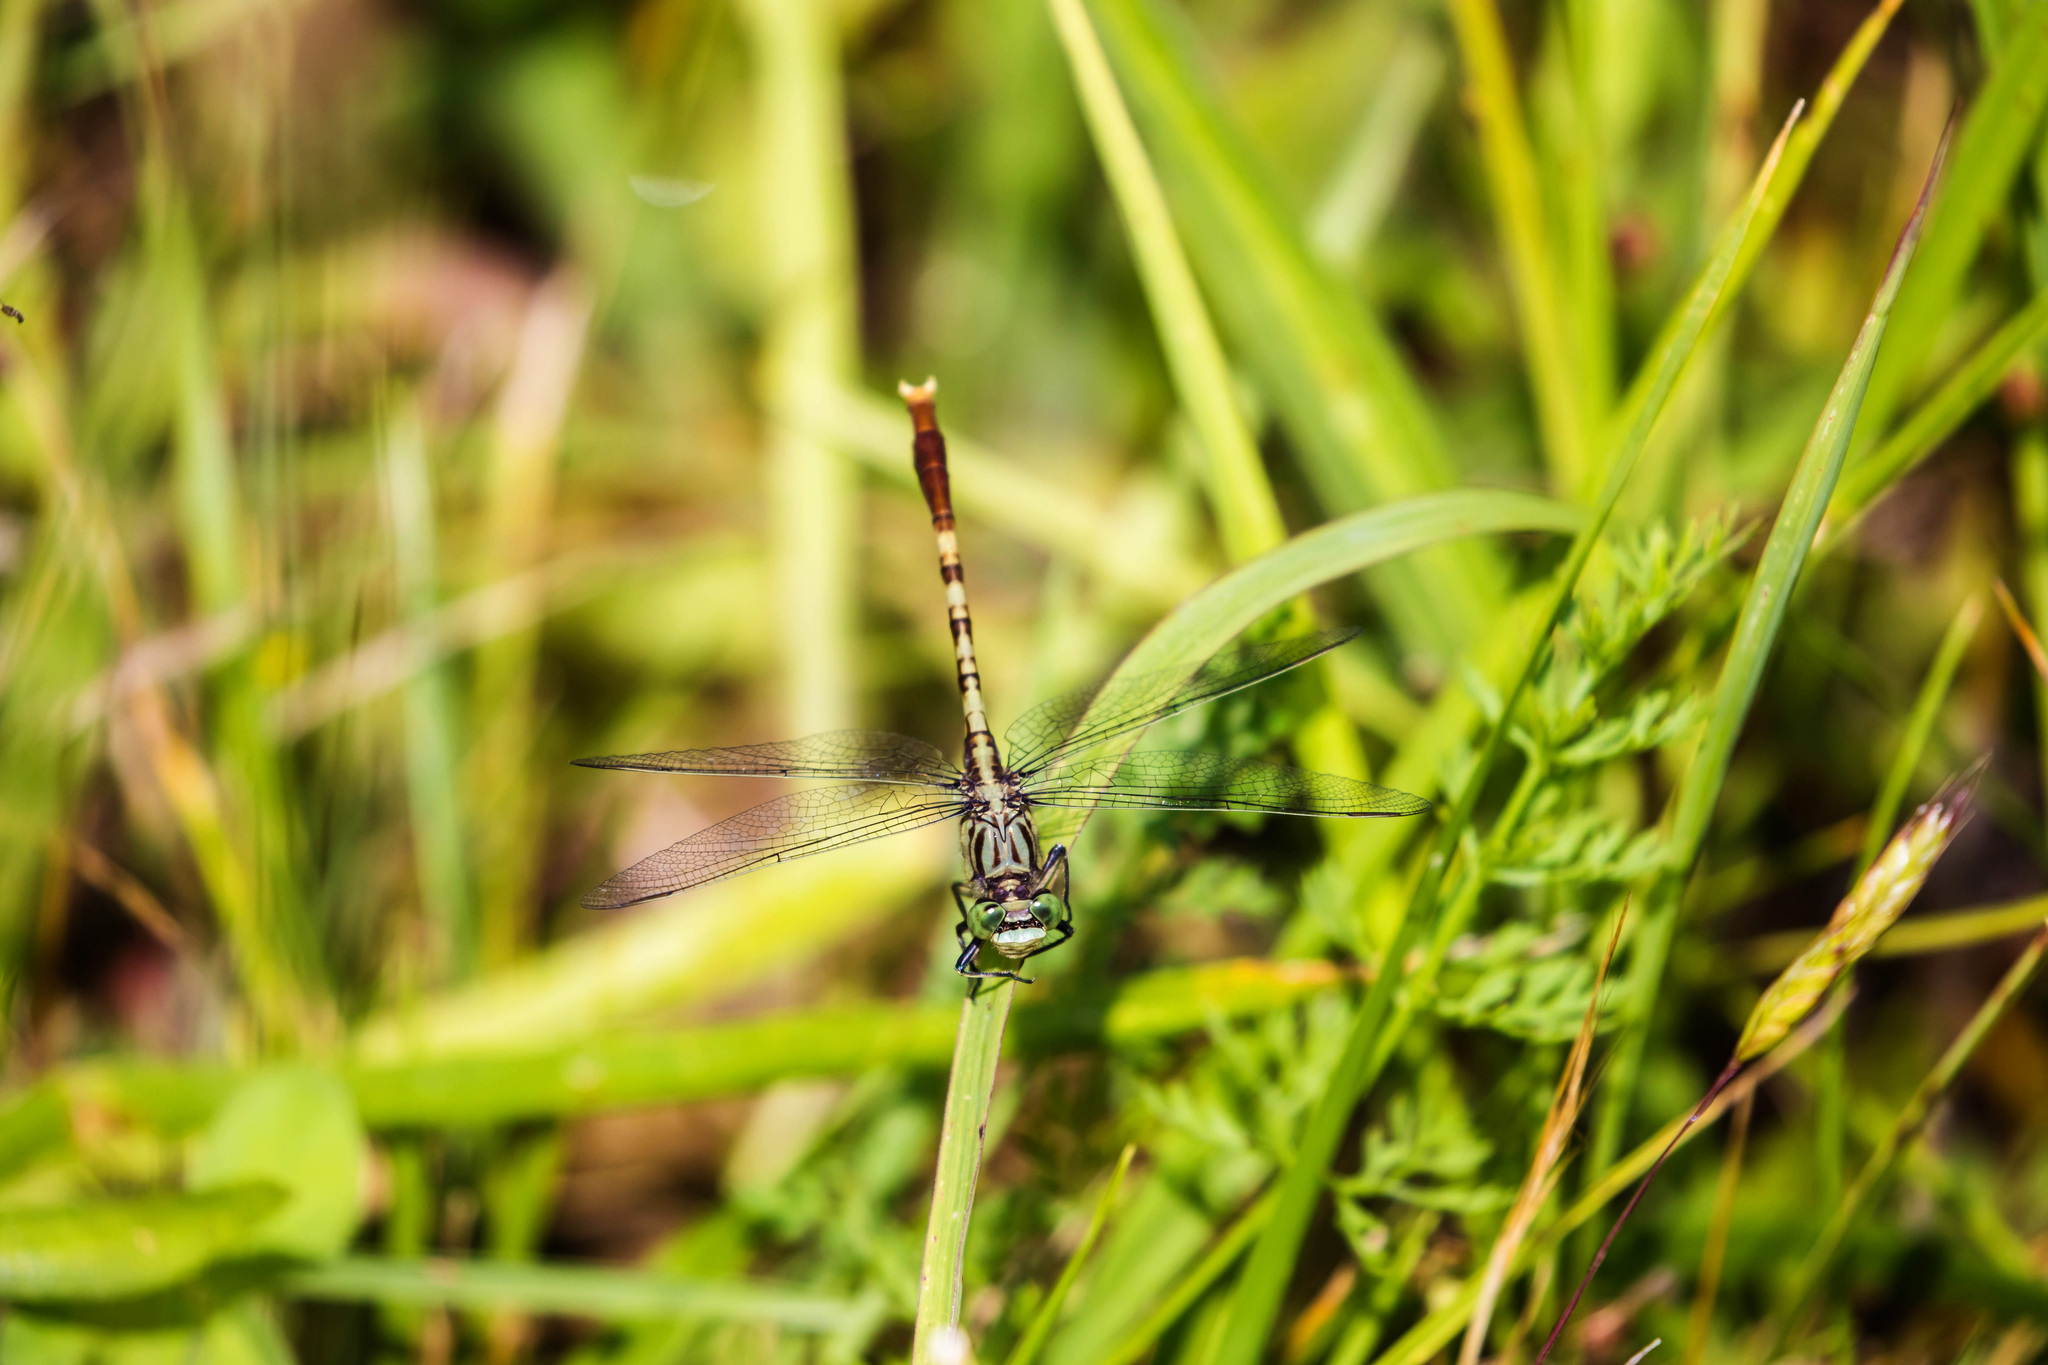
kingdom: Animalia
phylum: Arthropoda
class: Insecta
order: Odonata
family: Gomphidae
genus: Arigomphus
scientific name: Arigomphus submedianus
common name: Jade clubtail
